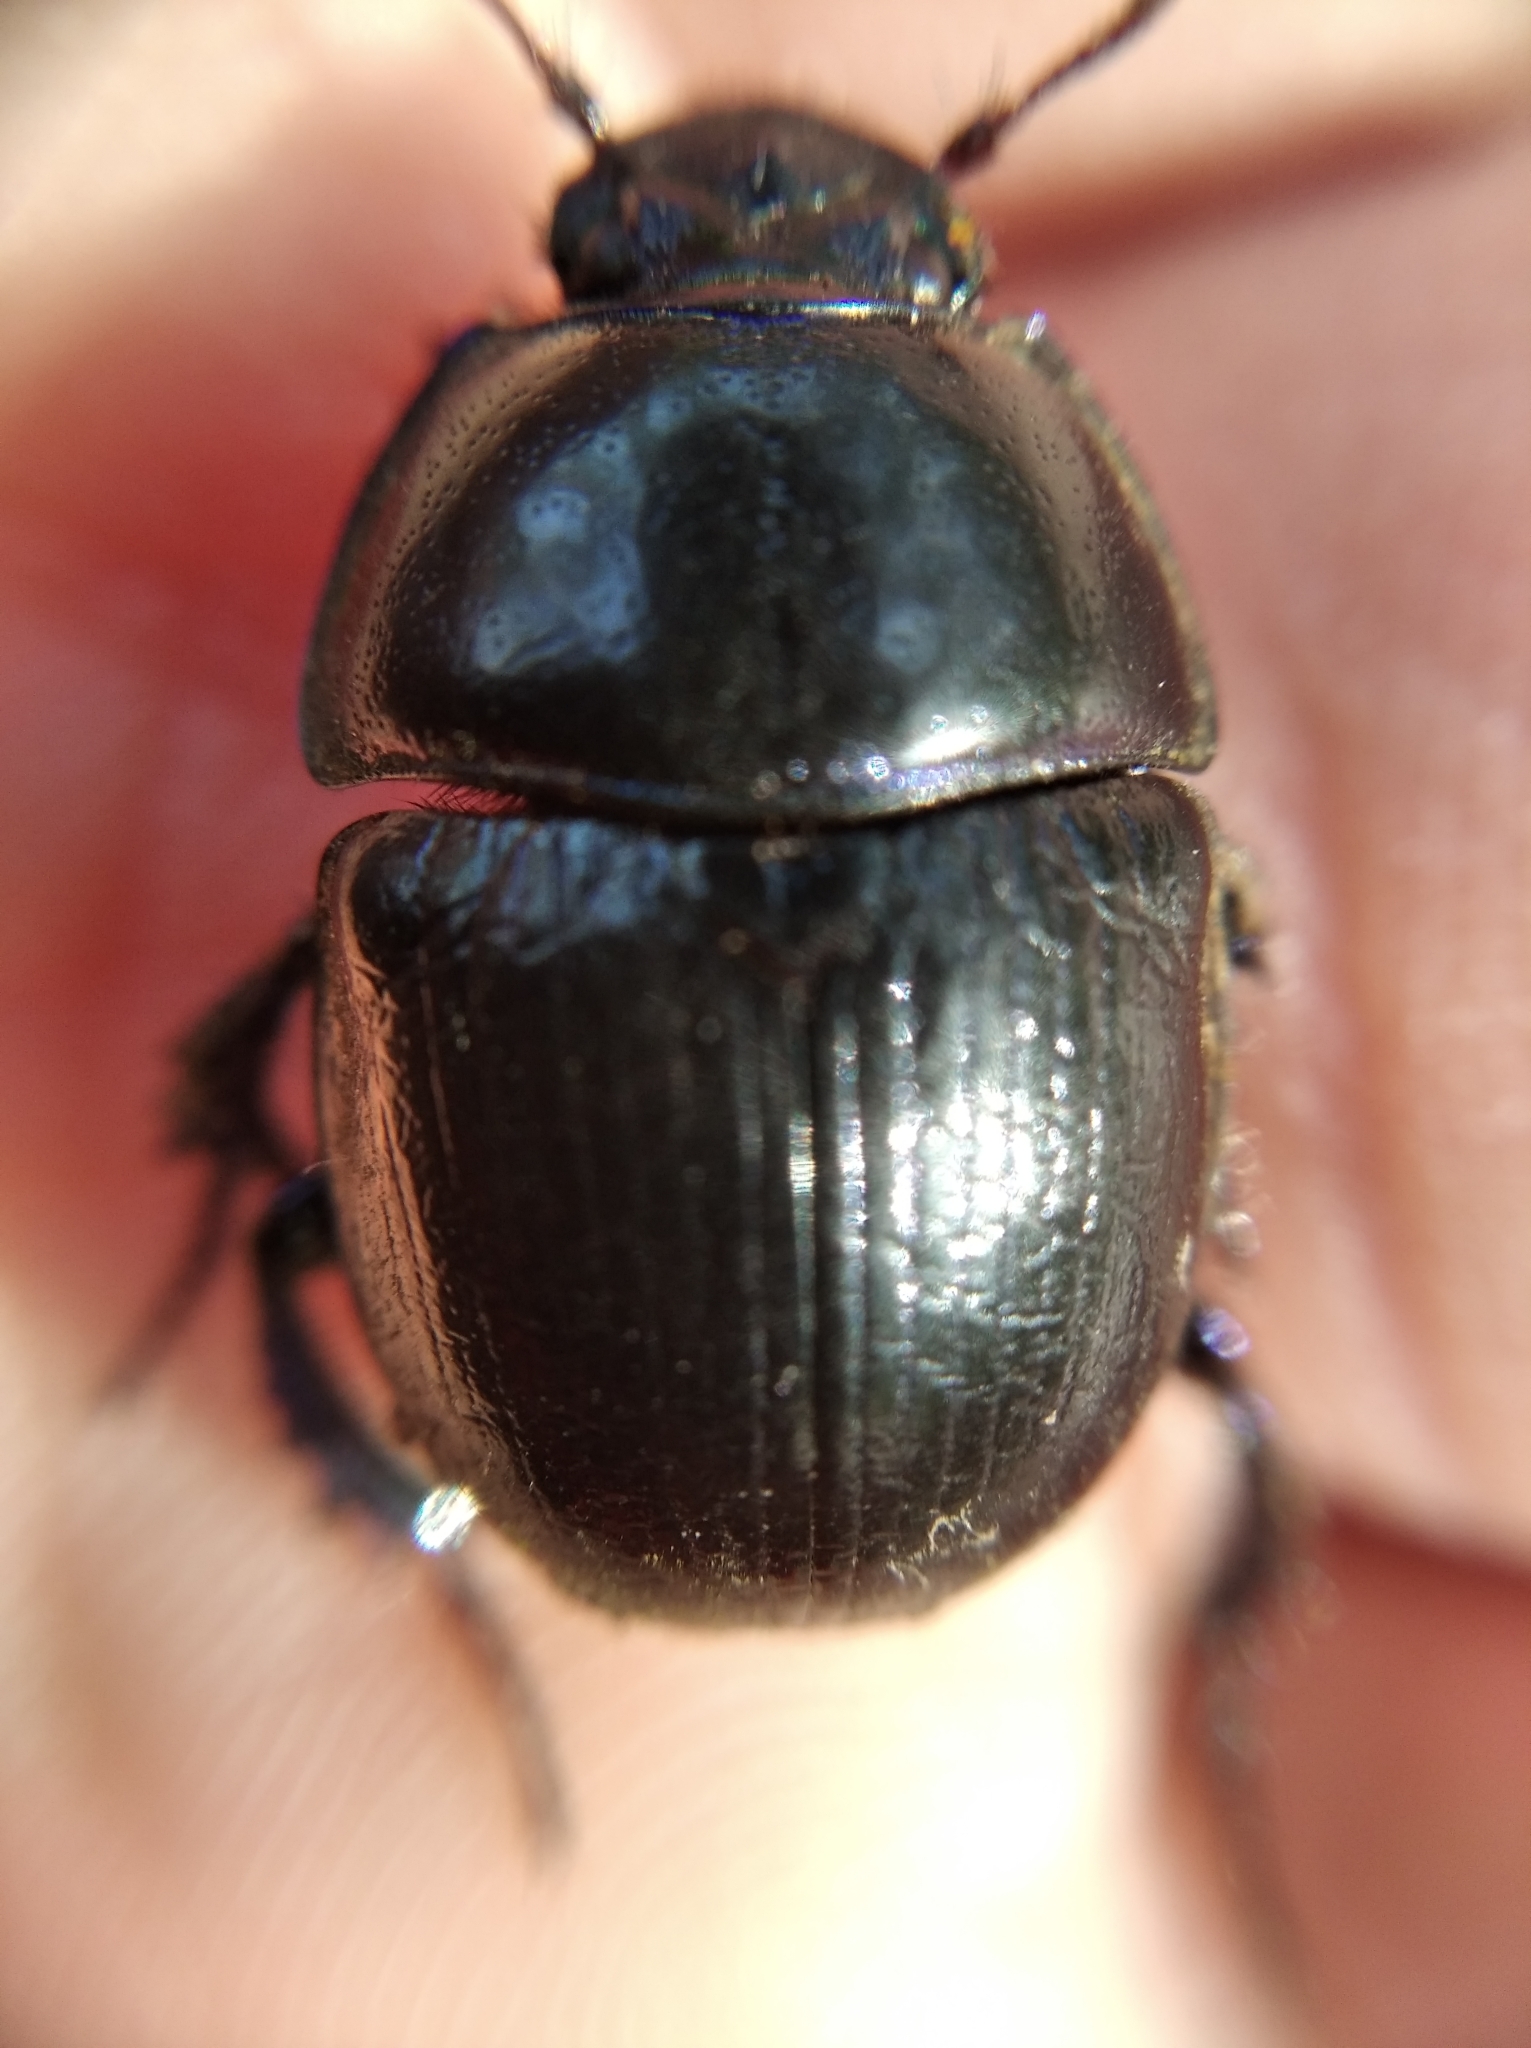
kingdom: Animalia
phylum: Arthropoda
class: Insecta
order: Coleoptera
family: Geotrupidae
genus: Anoplotrupes
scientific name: Anoplotrupes stercorosus
